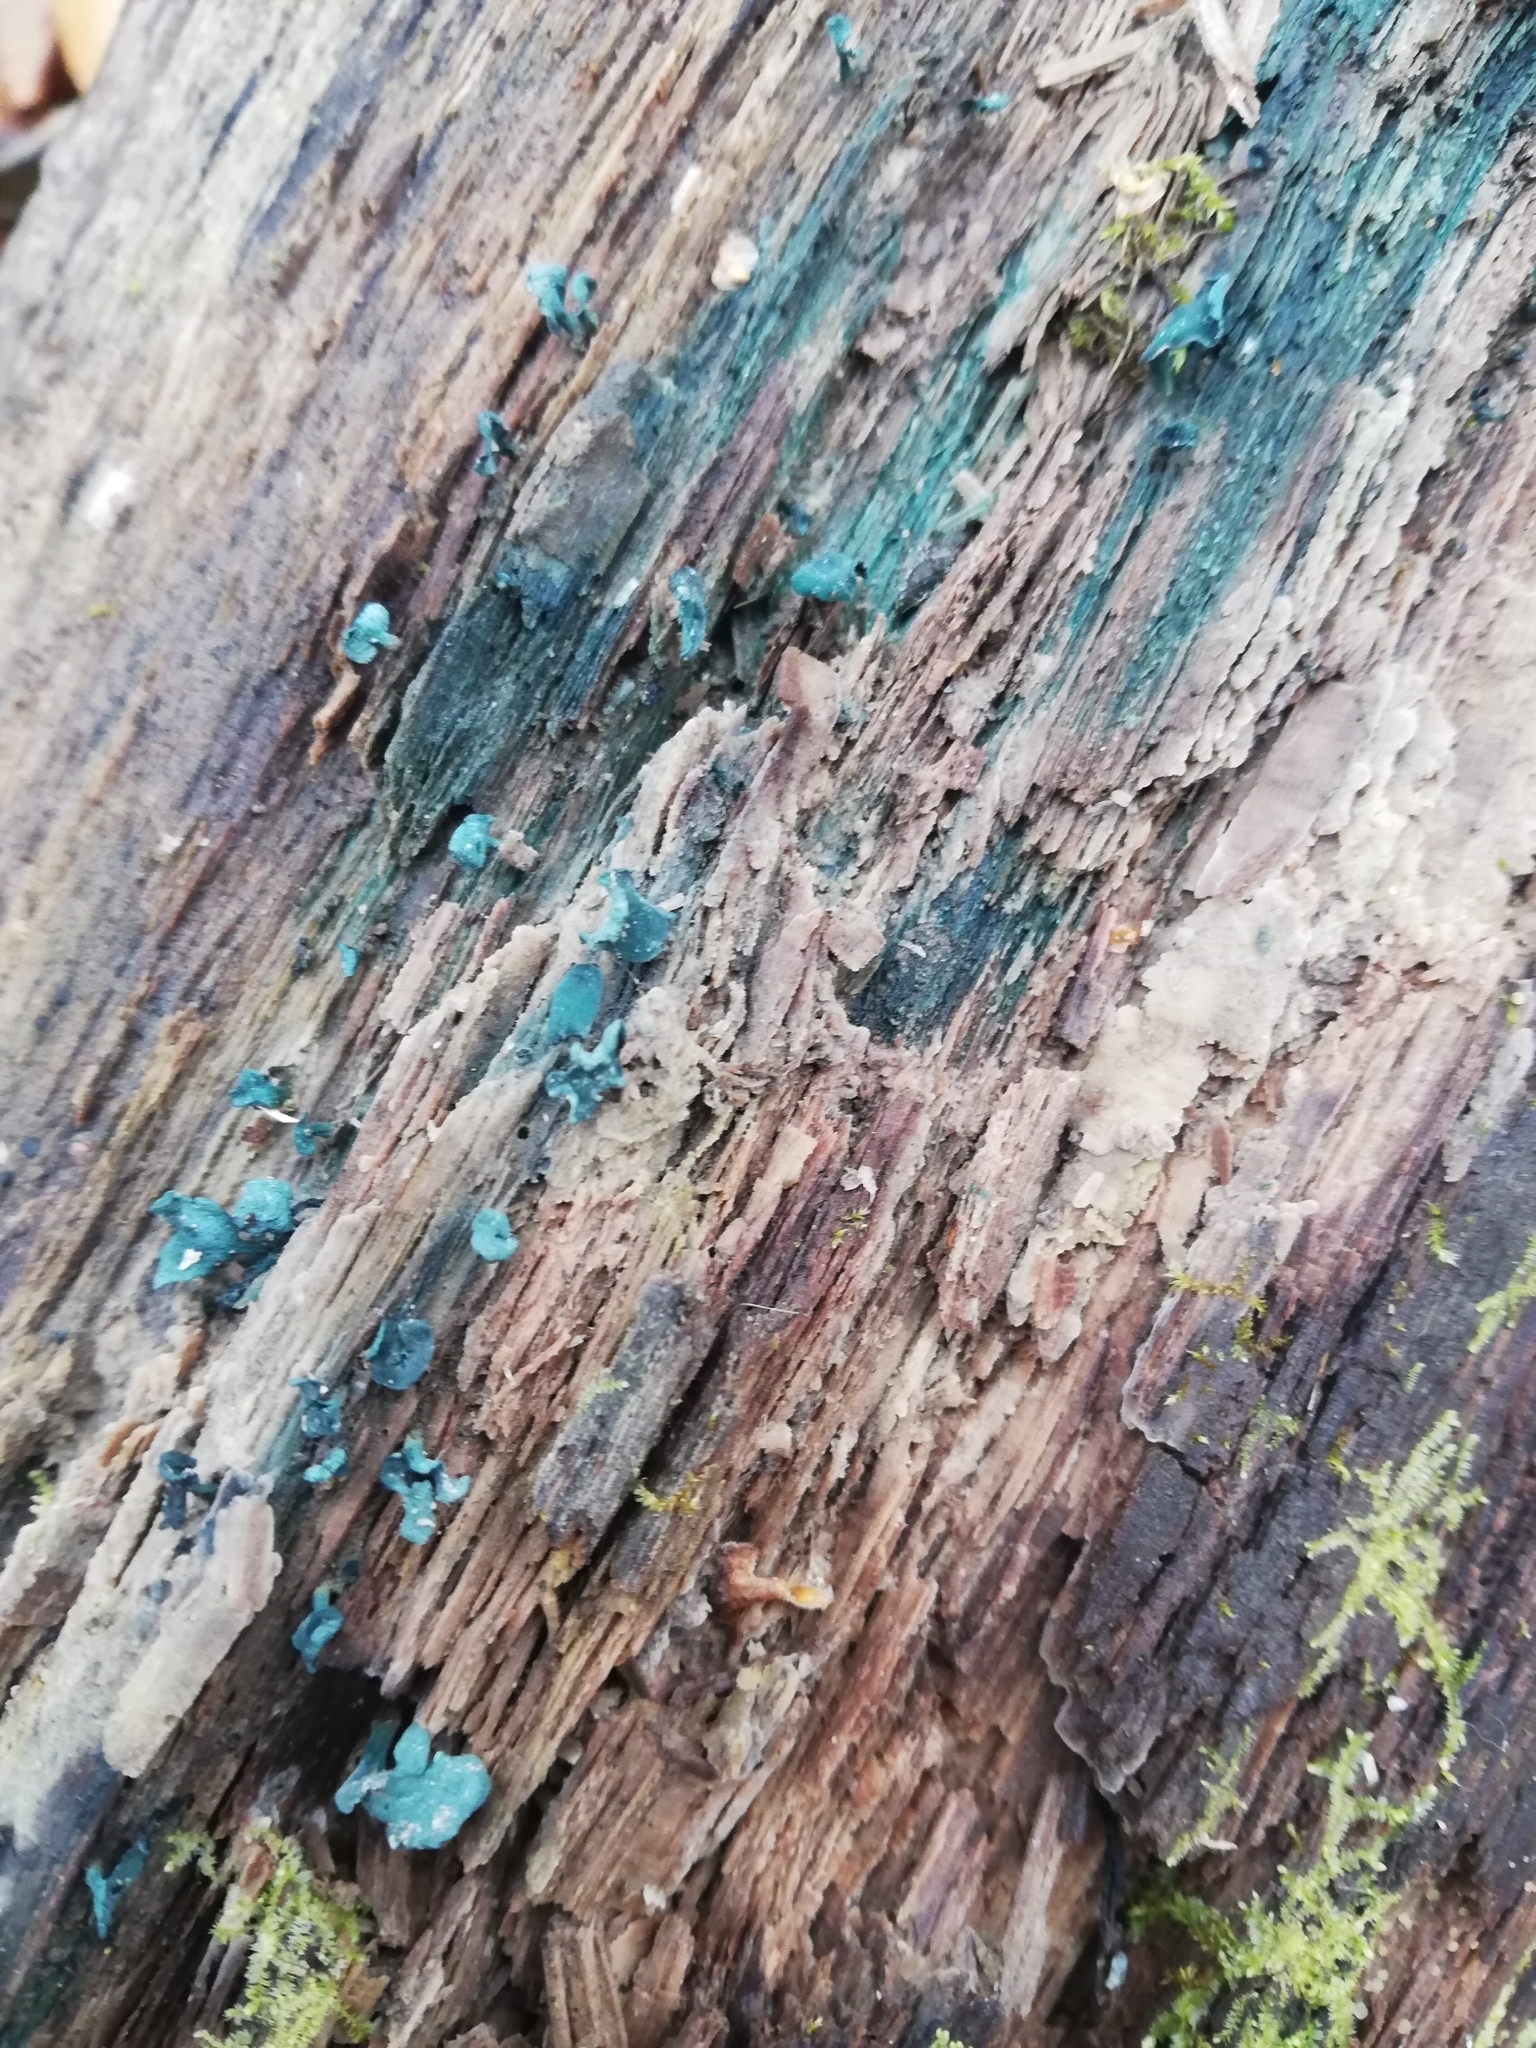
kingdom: Fungi
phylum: Ascomycota
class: Leotiomycetes
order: Helotiales
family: Chlorociboriaceae
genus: Chlorociboria
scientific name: Chlorociboria aeruginascens
